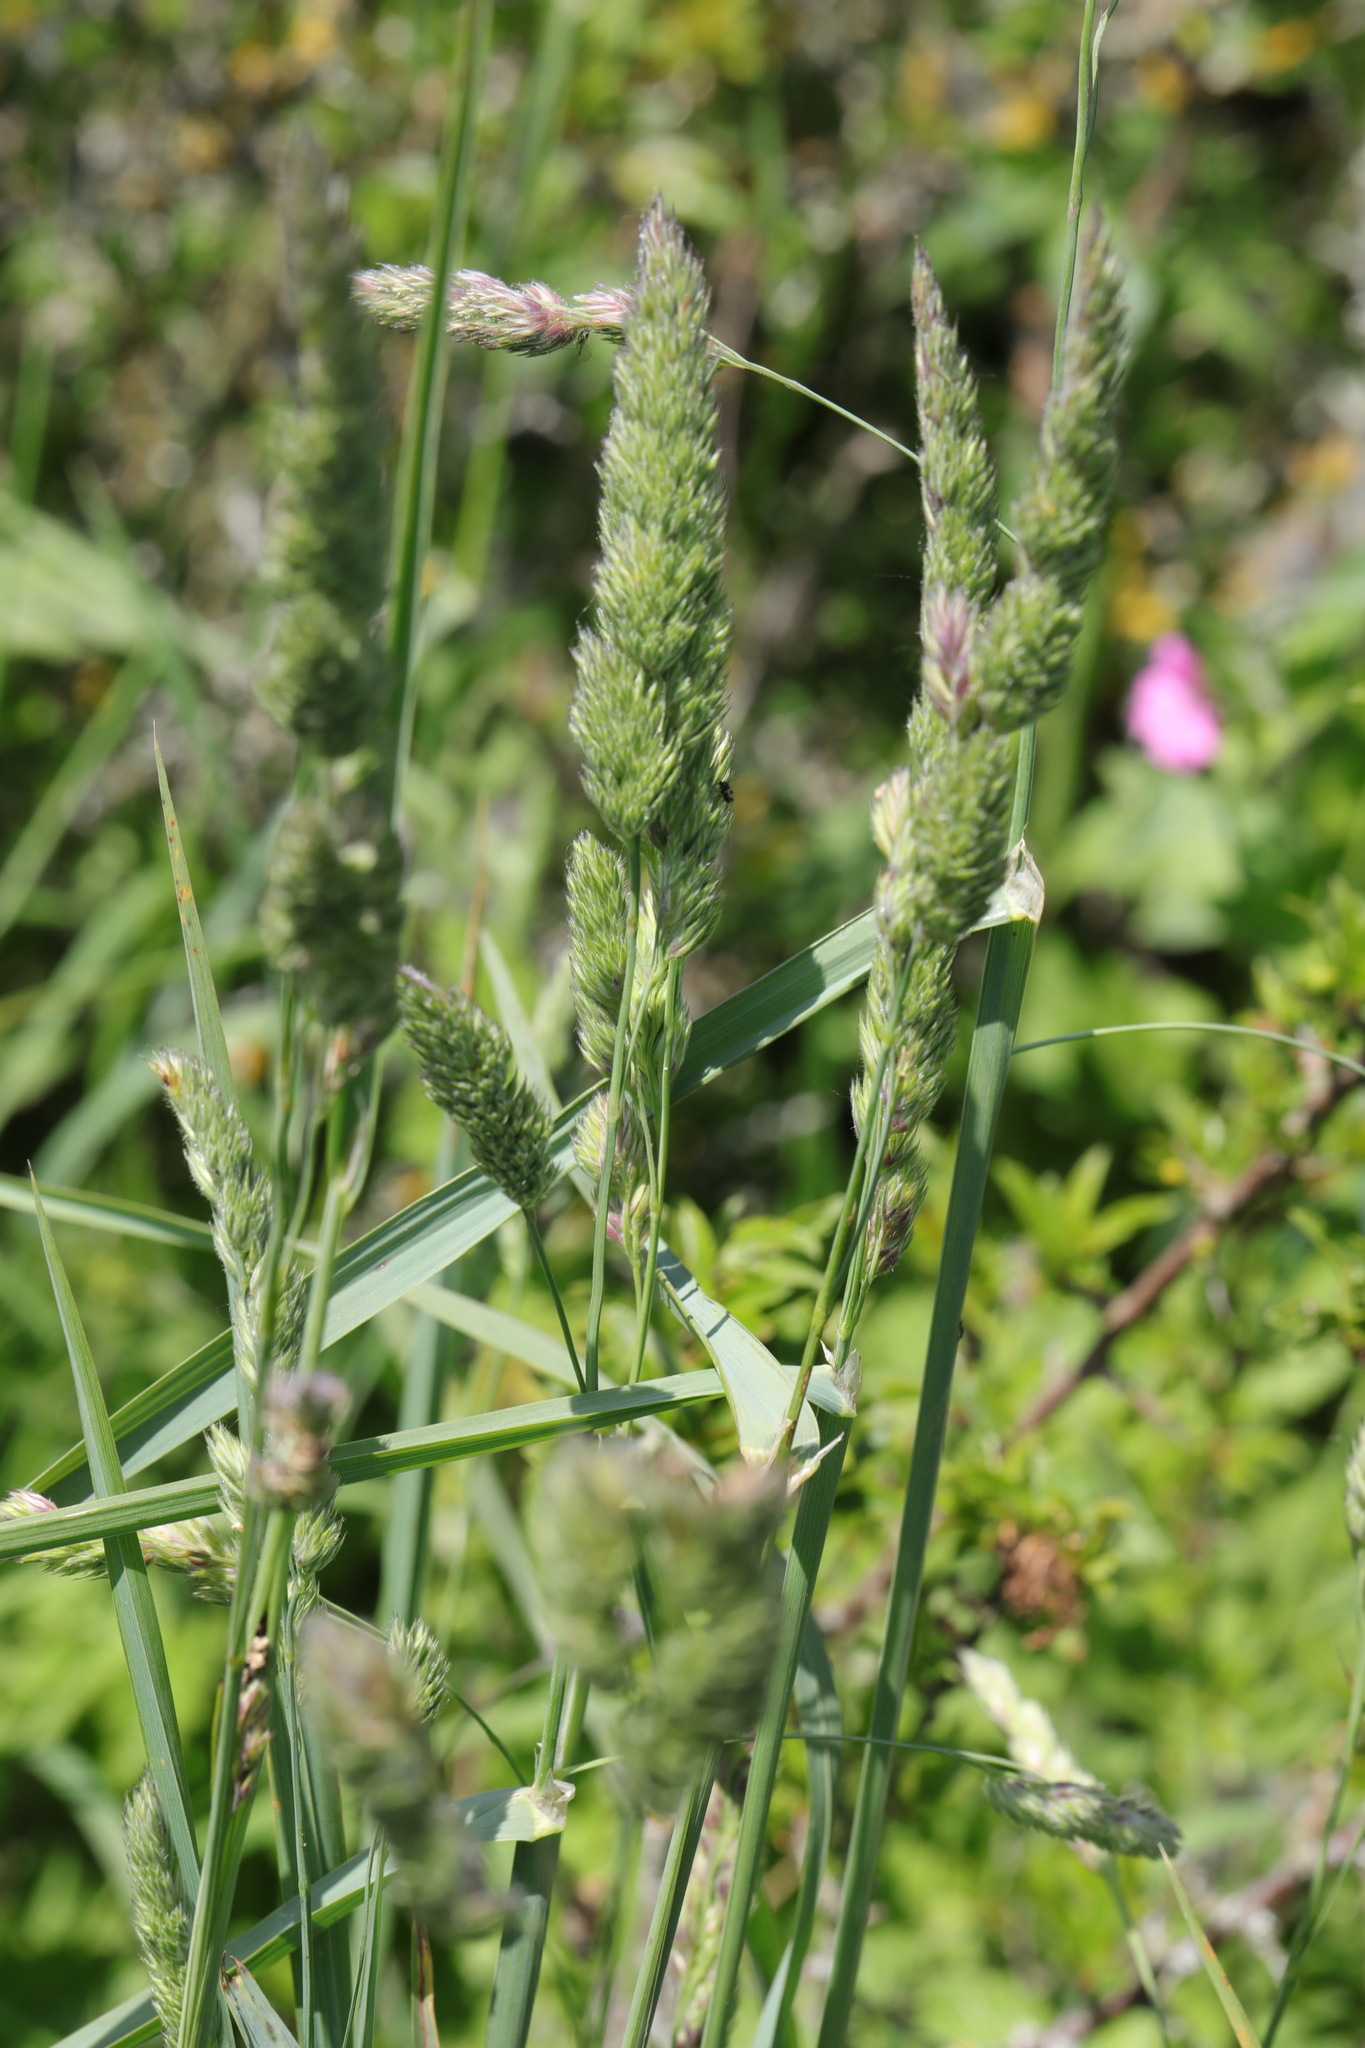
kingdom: Plantae
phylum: Tracheophyta
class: Liliopsida
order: Poales
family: Poaceae
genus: Dactylis
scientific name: Dactylis glomerata
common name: Orchardgrass
